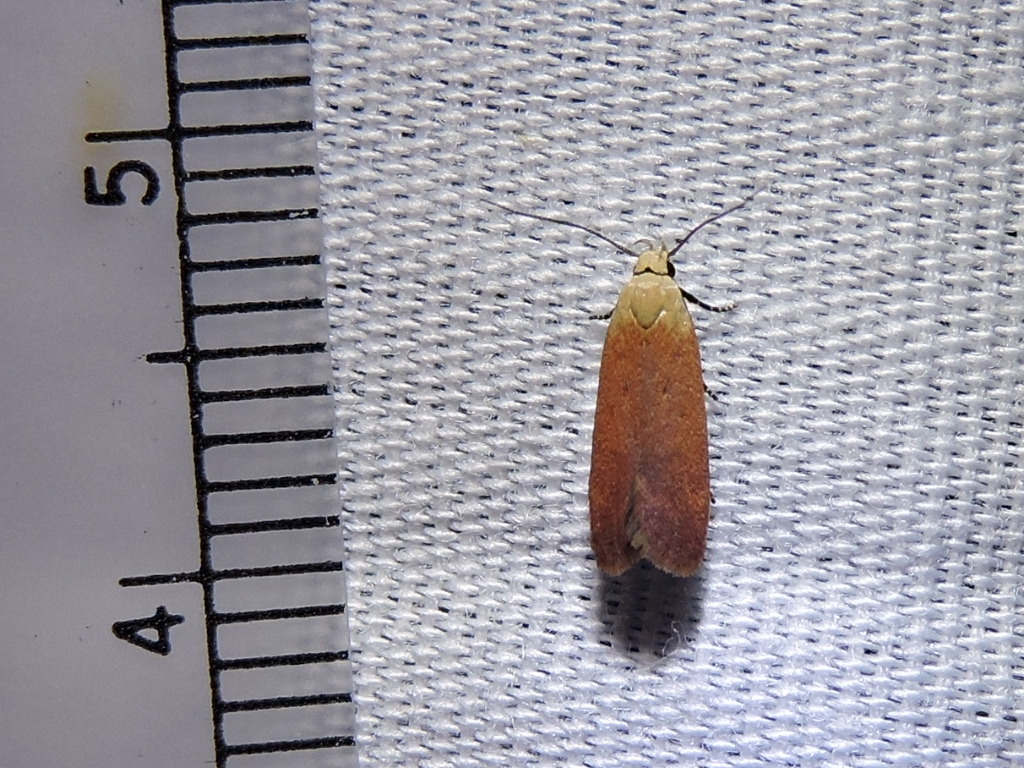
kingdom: Animalia
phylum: Arthropoda
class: Insecta
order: Lepidoptera
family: Gelechiidae
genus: Anacampsis
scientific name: Anacampsis fullonella
